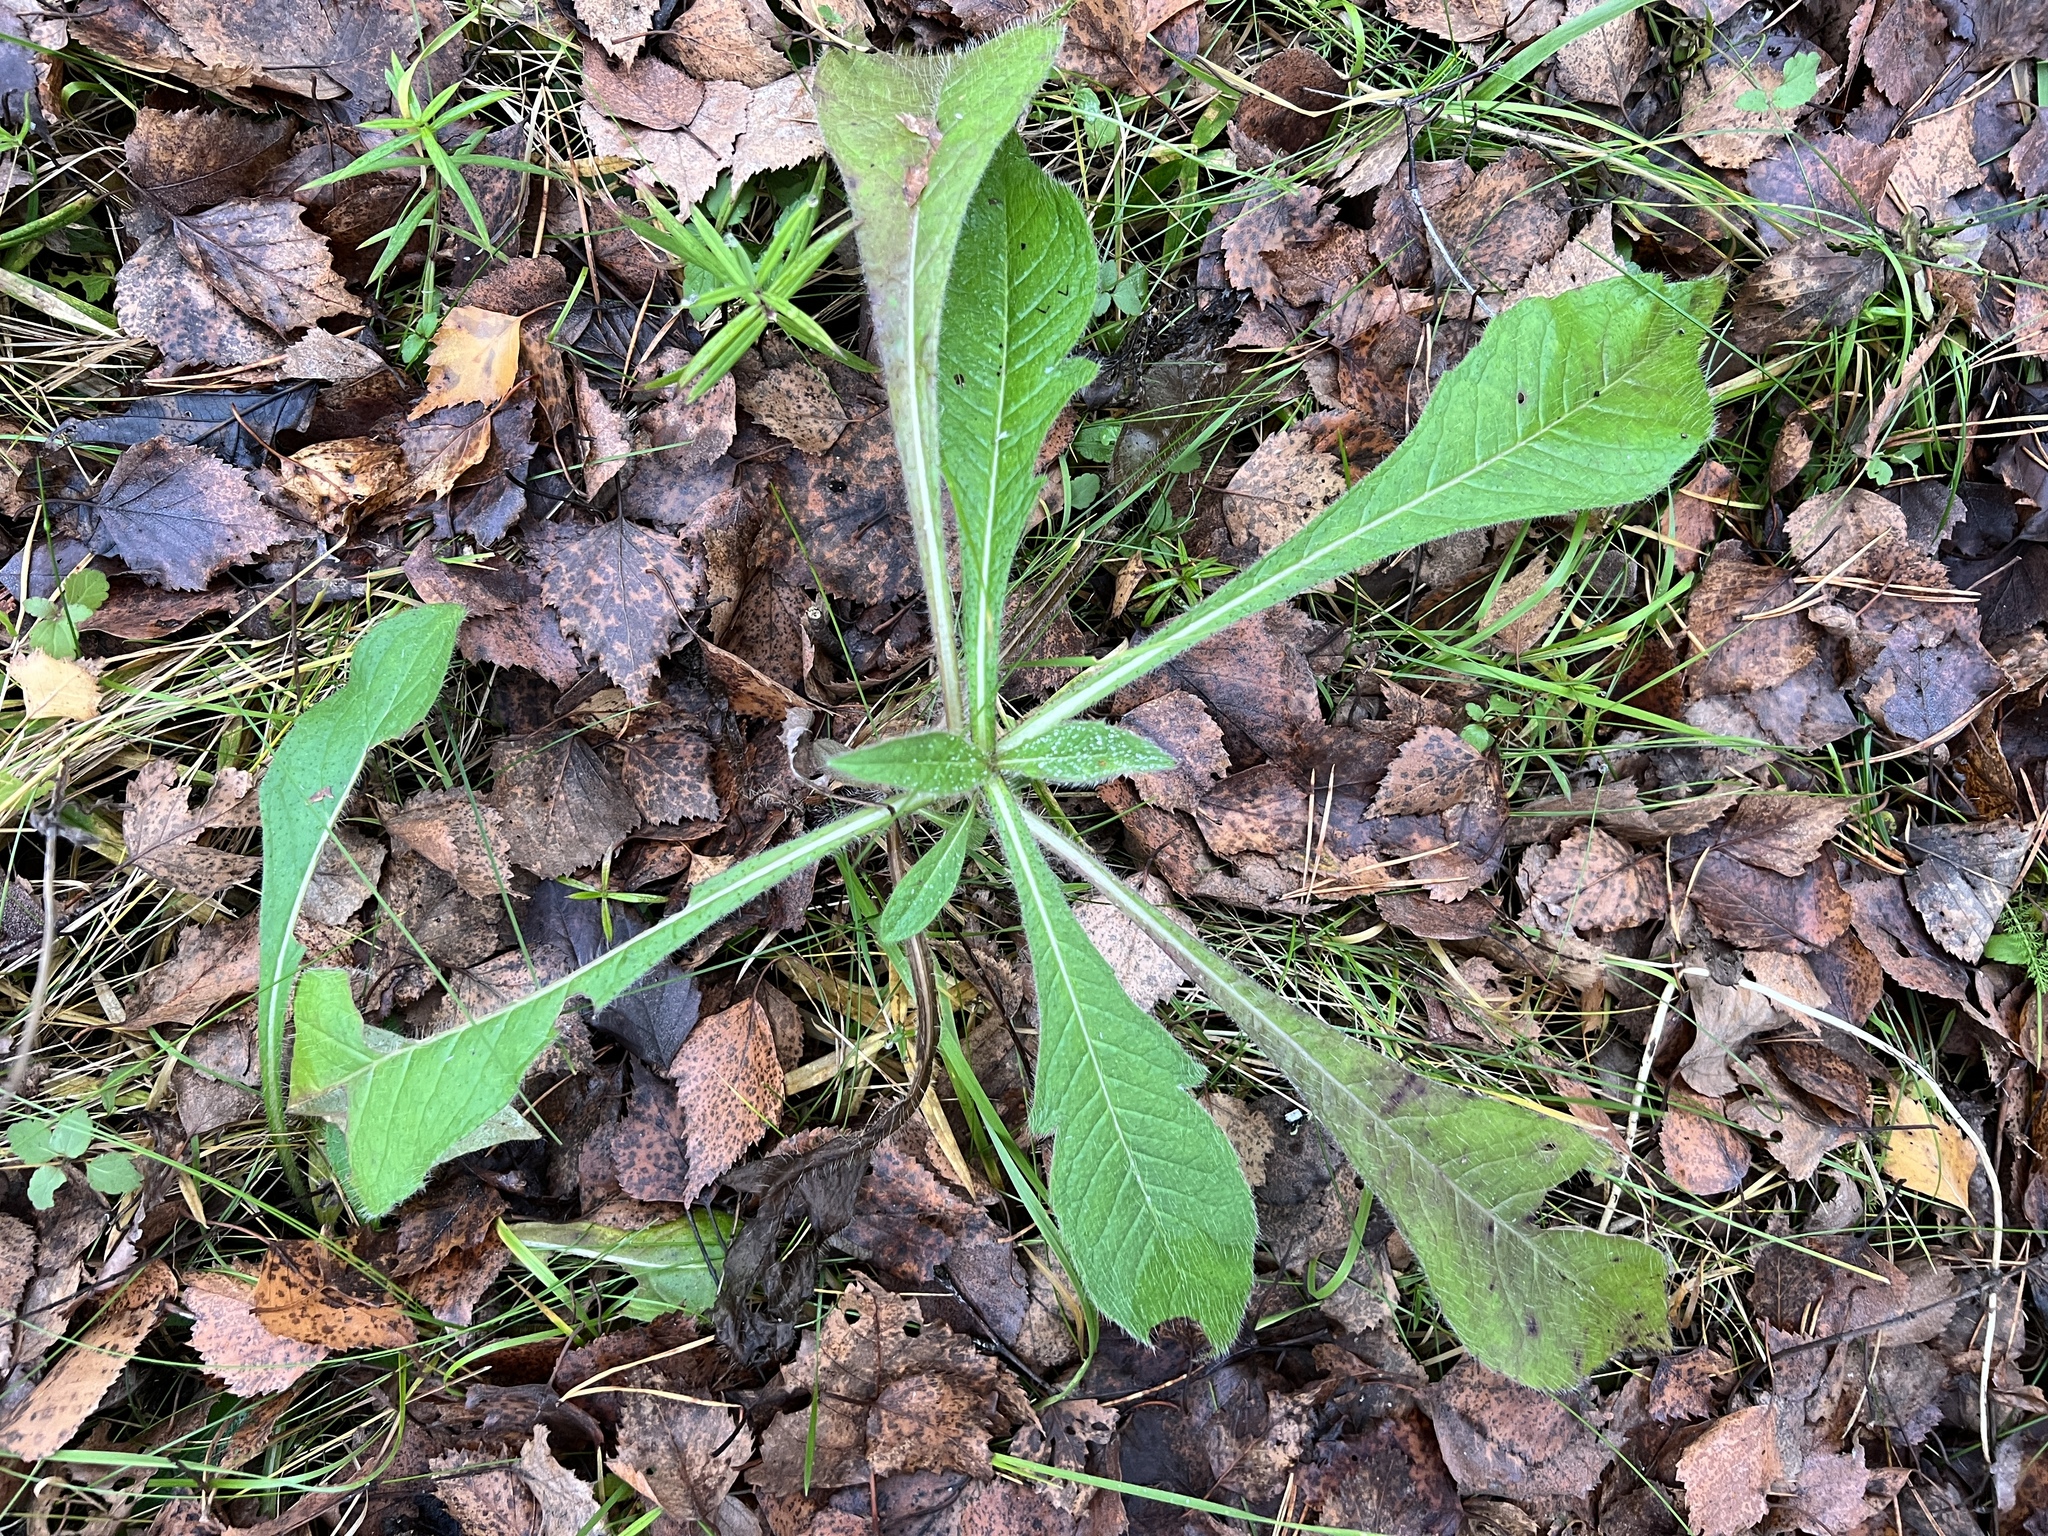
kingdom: Plantae
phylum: Tracheophyta
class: Magnoliopsida
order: Dipsacales
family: Caprifoliaceae
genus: Knautia
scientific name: Knautia arvensis
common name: Field scabiosa
